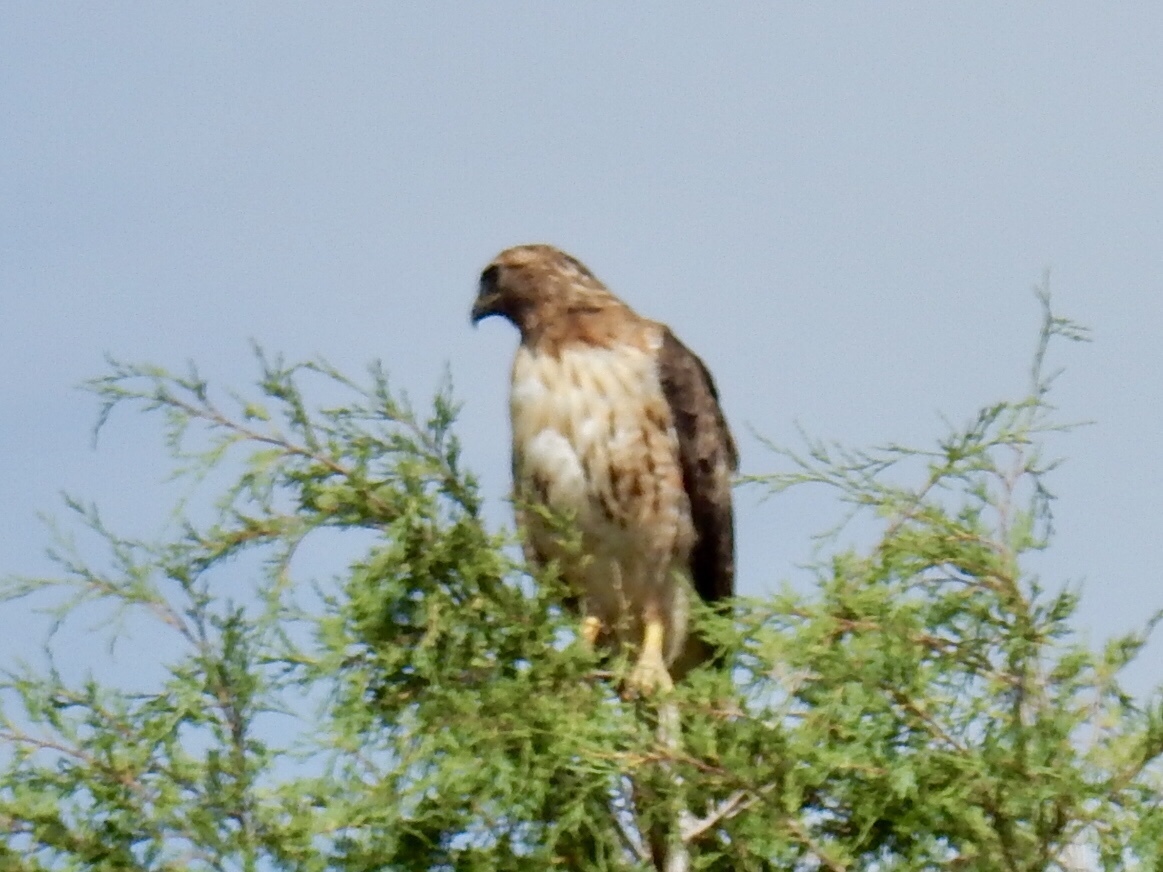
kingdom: Animalia
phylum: Chordata
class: Aves
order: Accipitriformes
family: Accipitridae
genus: Buteo
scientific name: Buteo jamaicensis
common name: Red-tailed hawk
